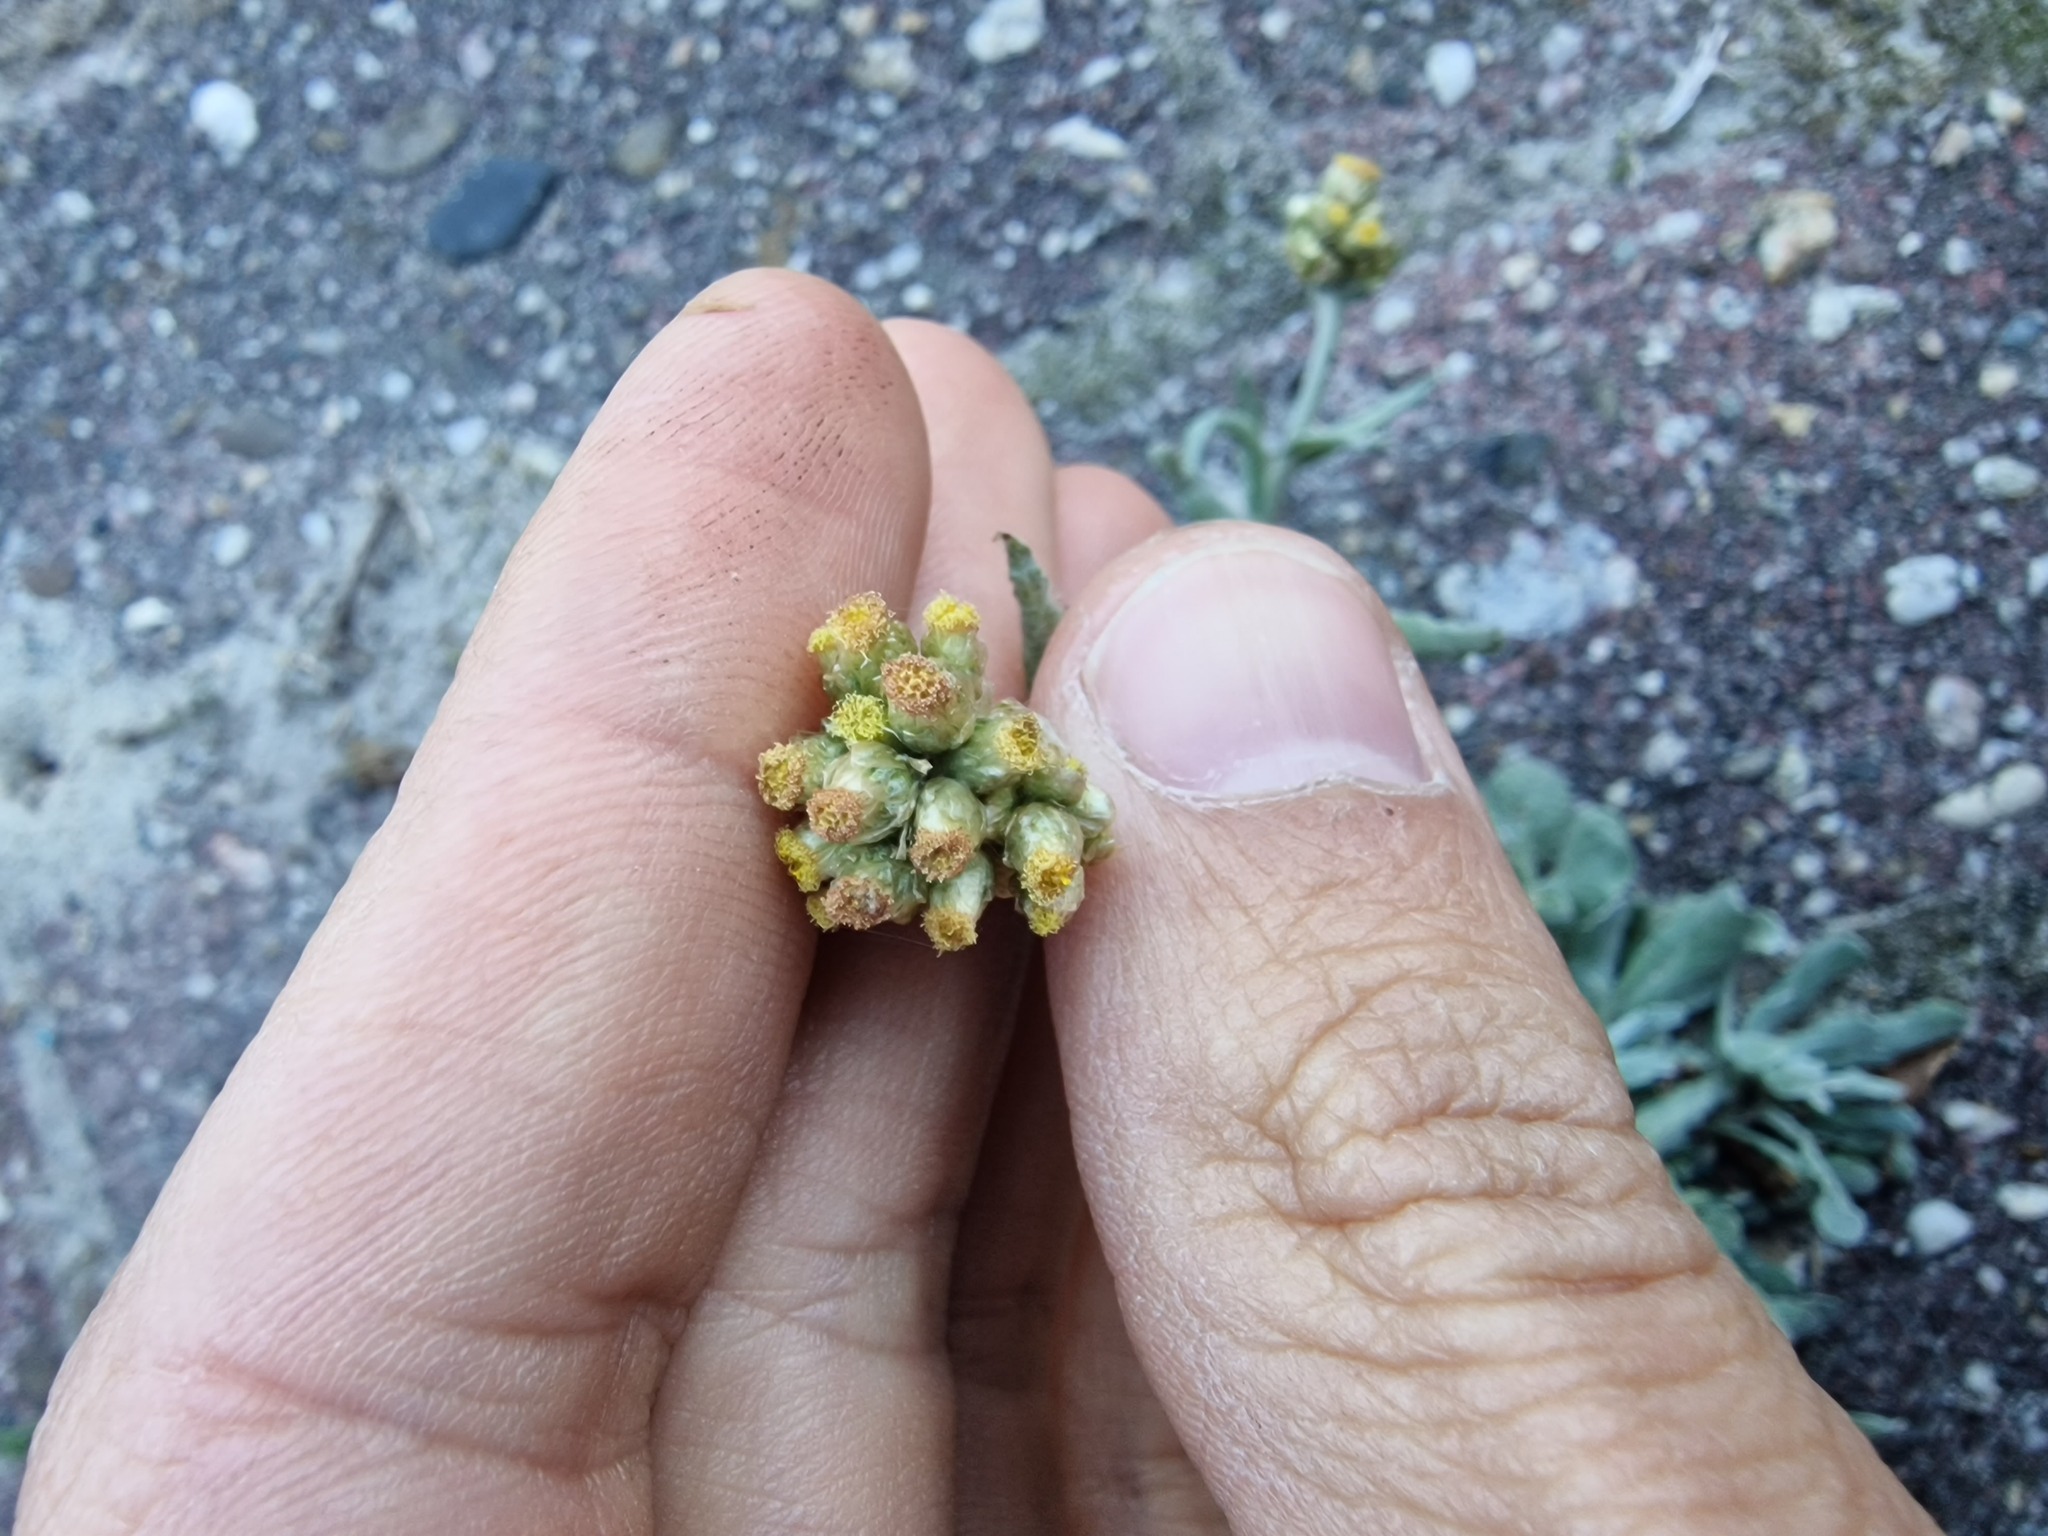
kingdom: Plantae
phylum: Tracheophyta
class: Magnoliopsida
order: Asterales
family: Asteraceae
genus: Helichrysum
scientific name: Helichrysum luteoalbum
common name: Daisy
